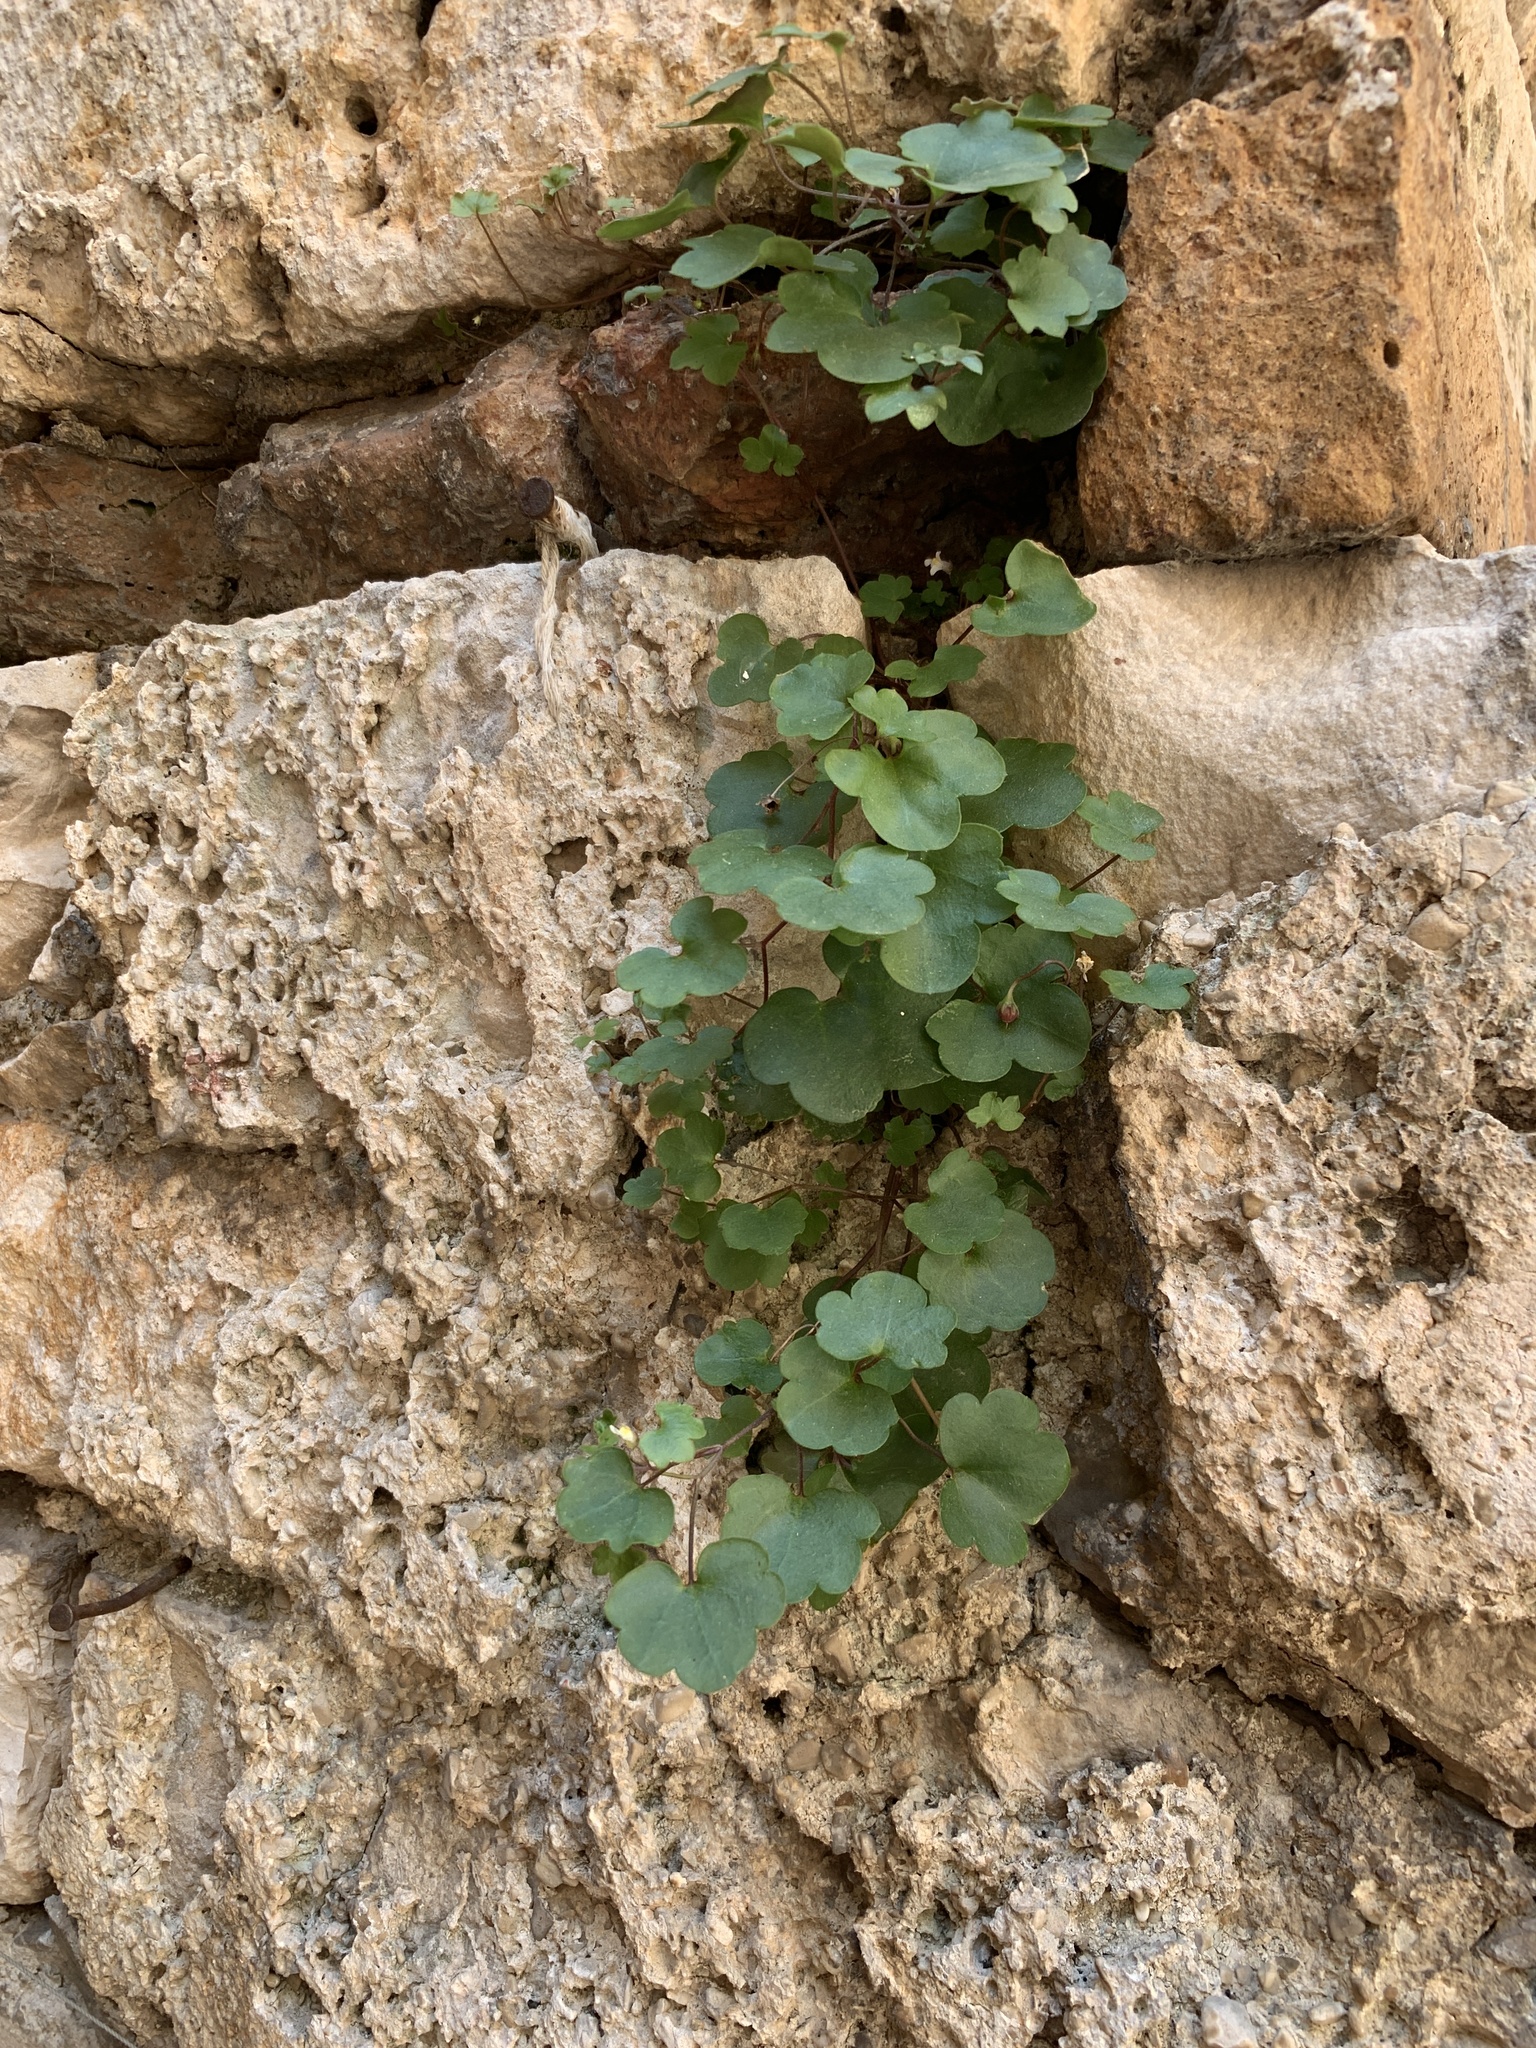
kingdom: Plantae
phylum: Tracheophyta
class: Magnoliopsida
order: Lamiales
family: Plantaginaceae
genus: Cymbalaria
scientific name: Cymbalaria muralis
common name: Ivy-leaved toadflax
